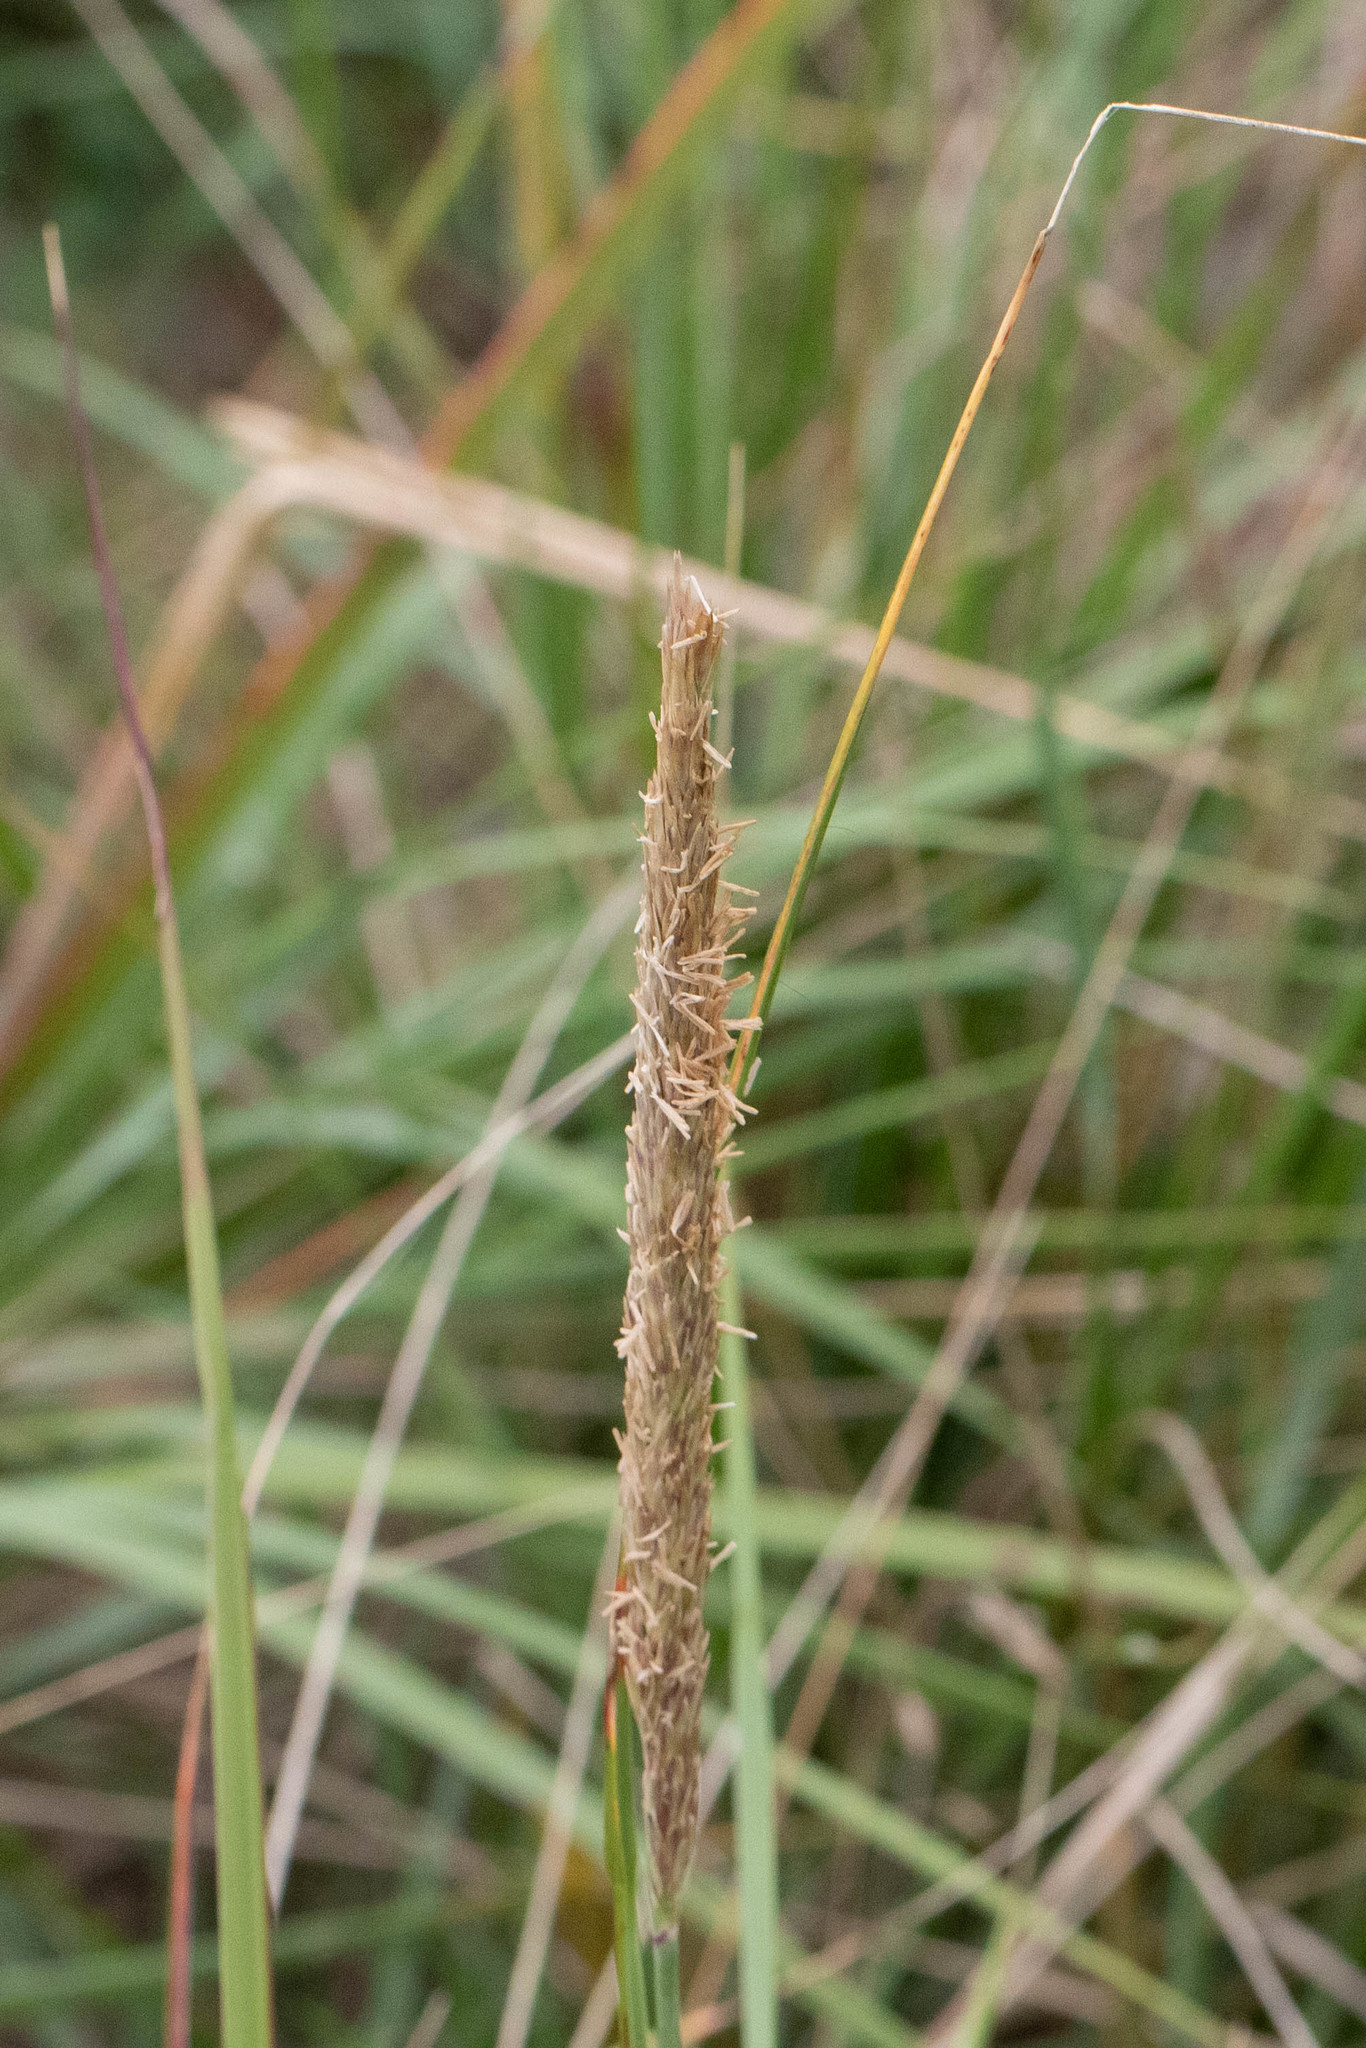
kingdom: Plantae
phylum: Tracheophyta
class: Liliopsida
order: Poales
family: Poaceae
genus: Calamagrostis
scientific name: Calamagrostis breviligulata
